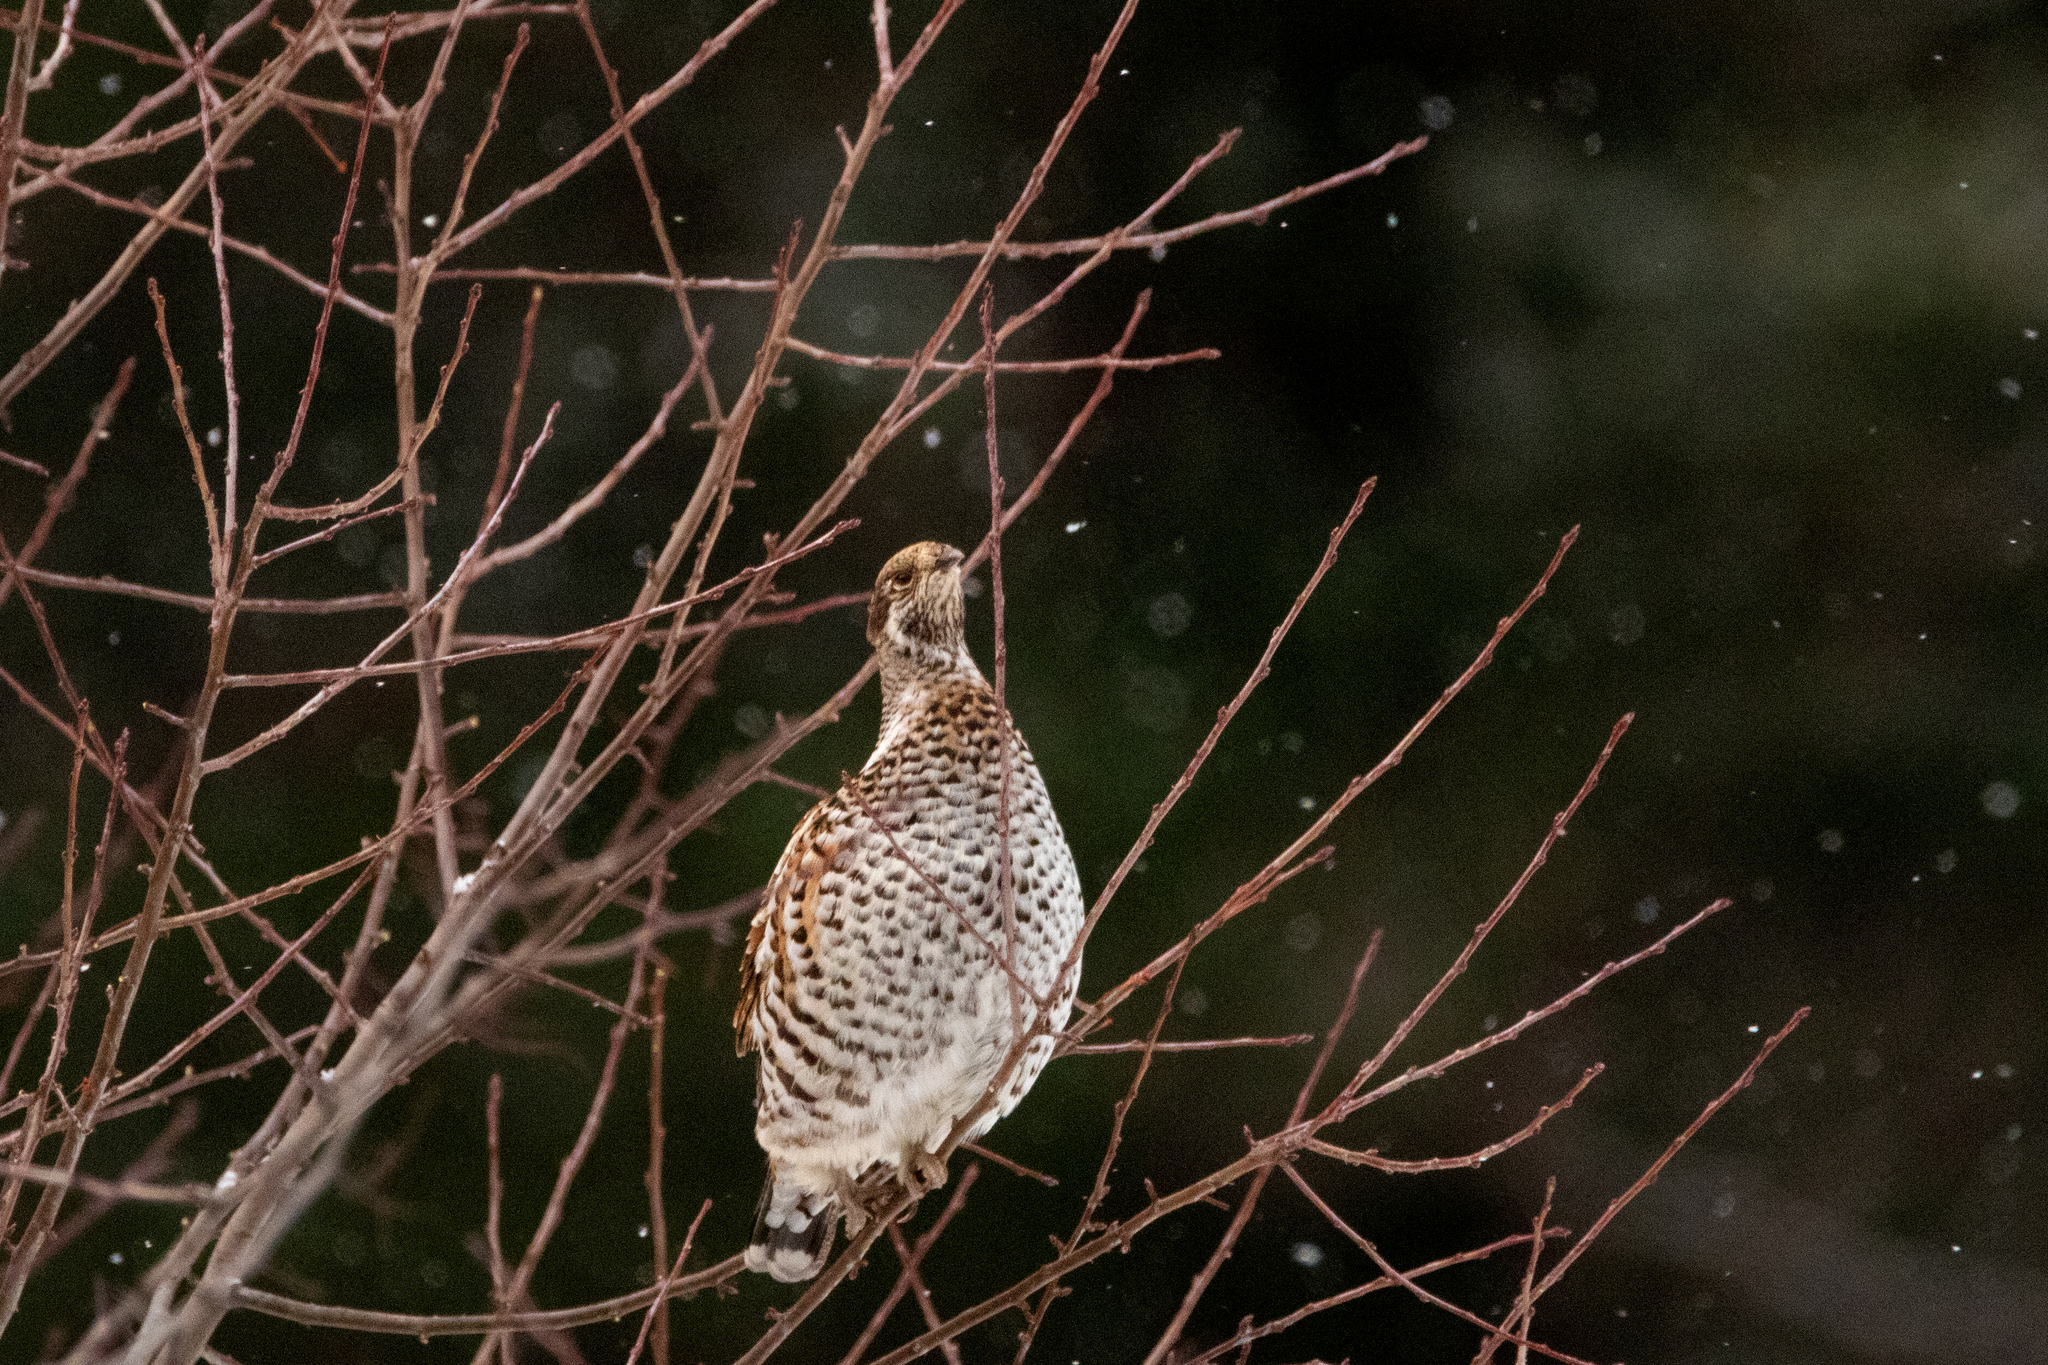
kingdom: Animalia
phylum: Chordata
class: Aves
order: Galliformes
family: Phasianidae
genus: Tetrastes
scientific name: Tetrastes bonasia
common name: Hazel grouse
